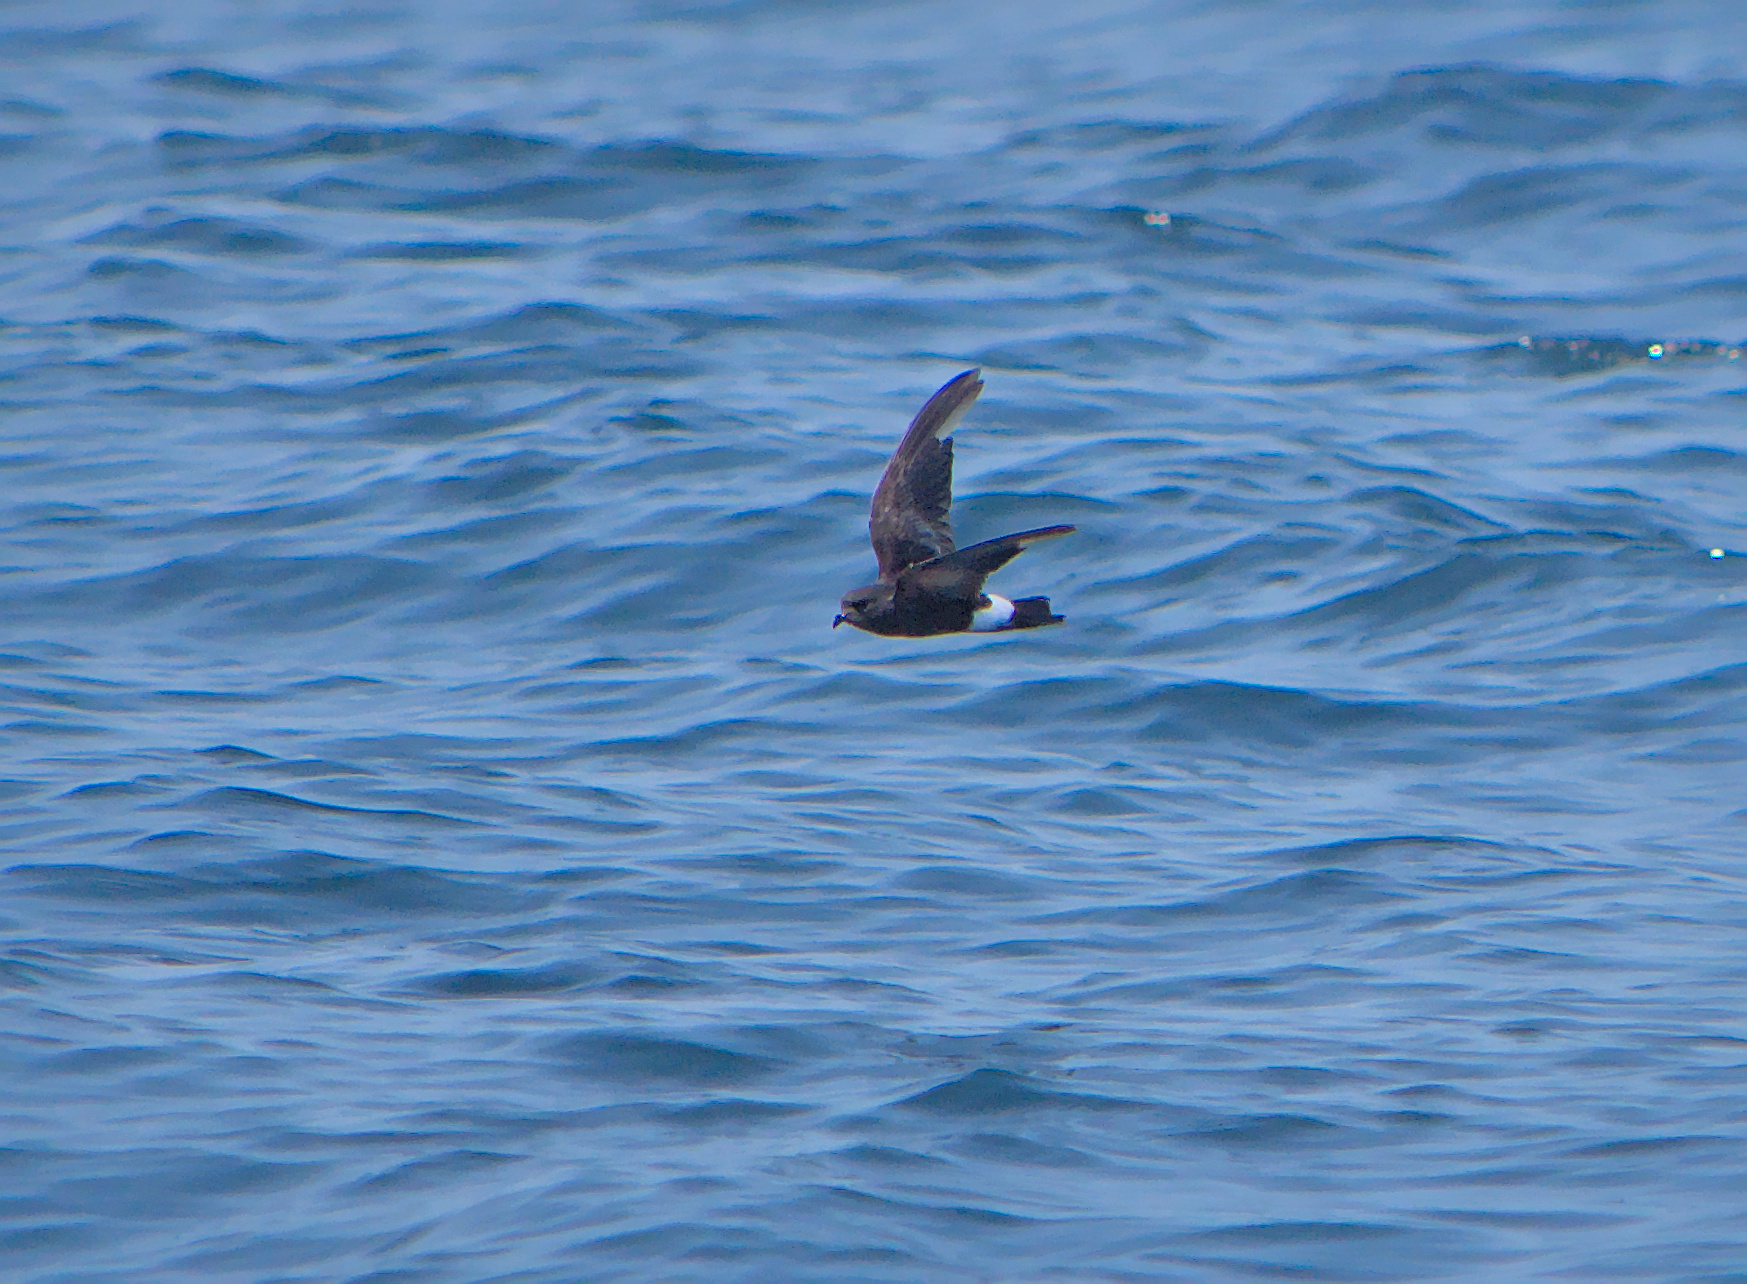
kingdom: Animalia
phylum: Chordata
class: Aves
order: Procellariiformes
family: Hydrobatidae
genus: Oceanites
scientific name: Oceanites oceanicus
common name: Wilson's storm petrel
